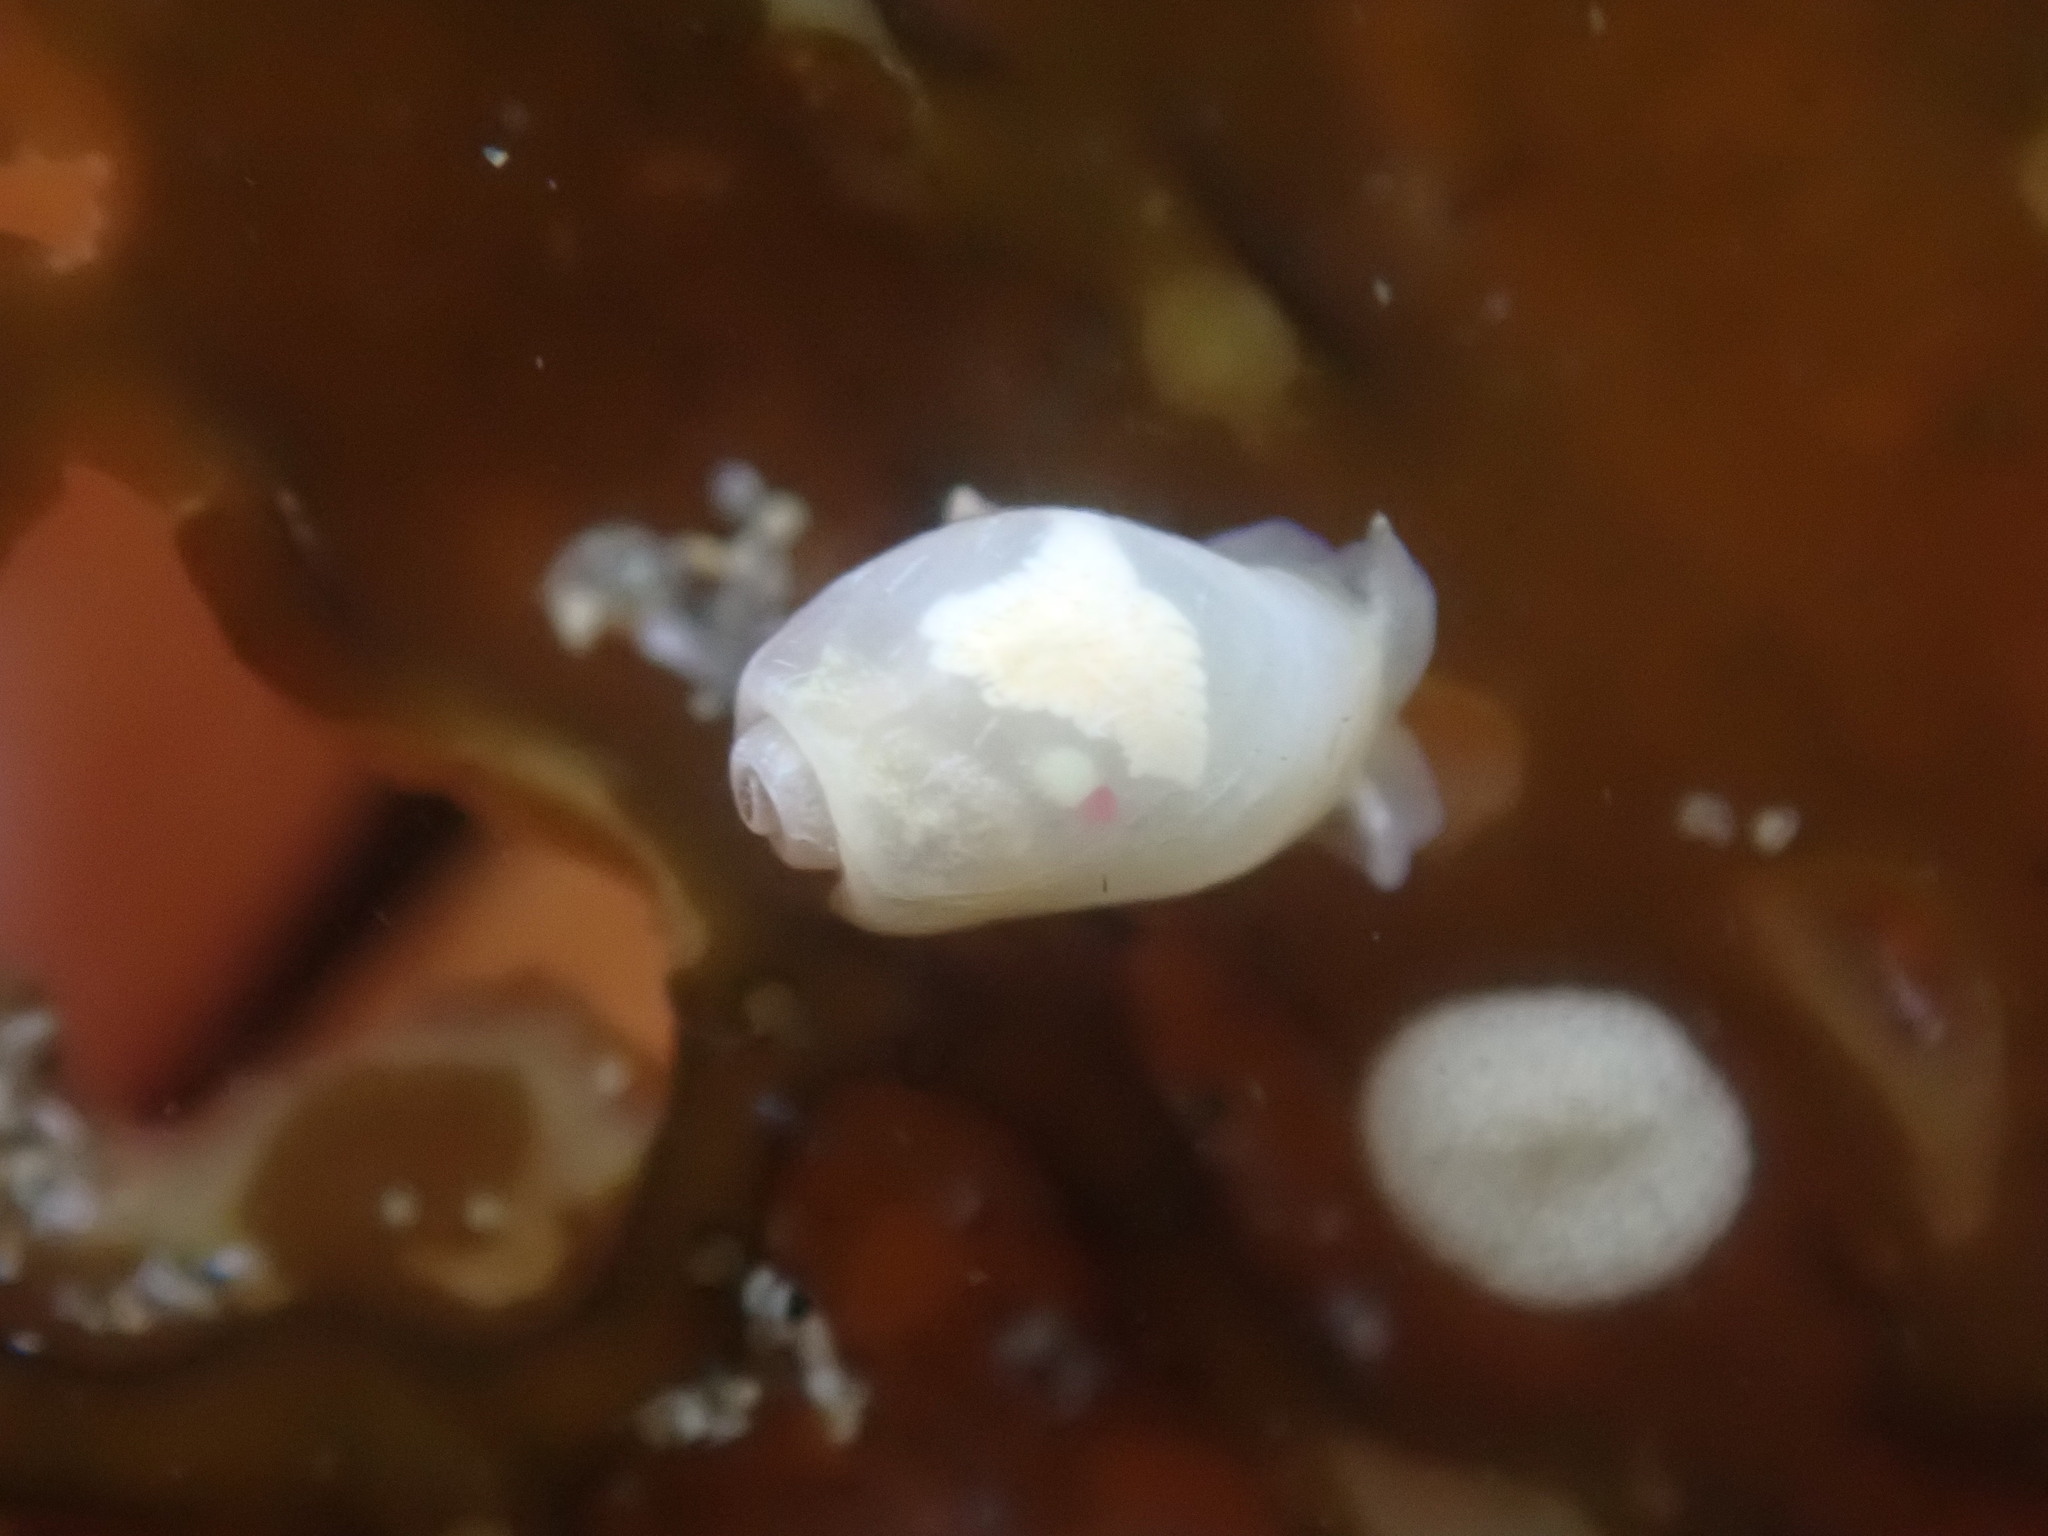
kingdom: Animalia
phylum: Mollusca
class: Gastropoda
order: Cephalaspidea
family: Diaphanidae
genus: Diaphana
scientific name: Diaphana californica
